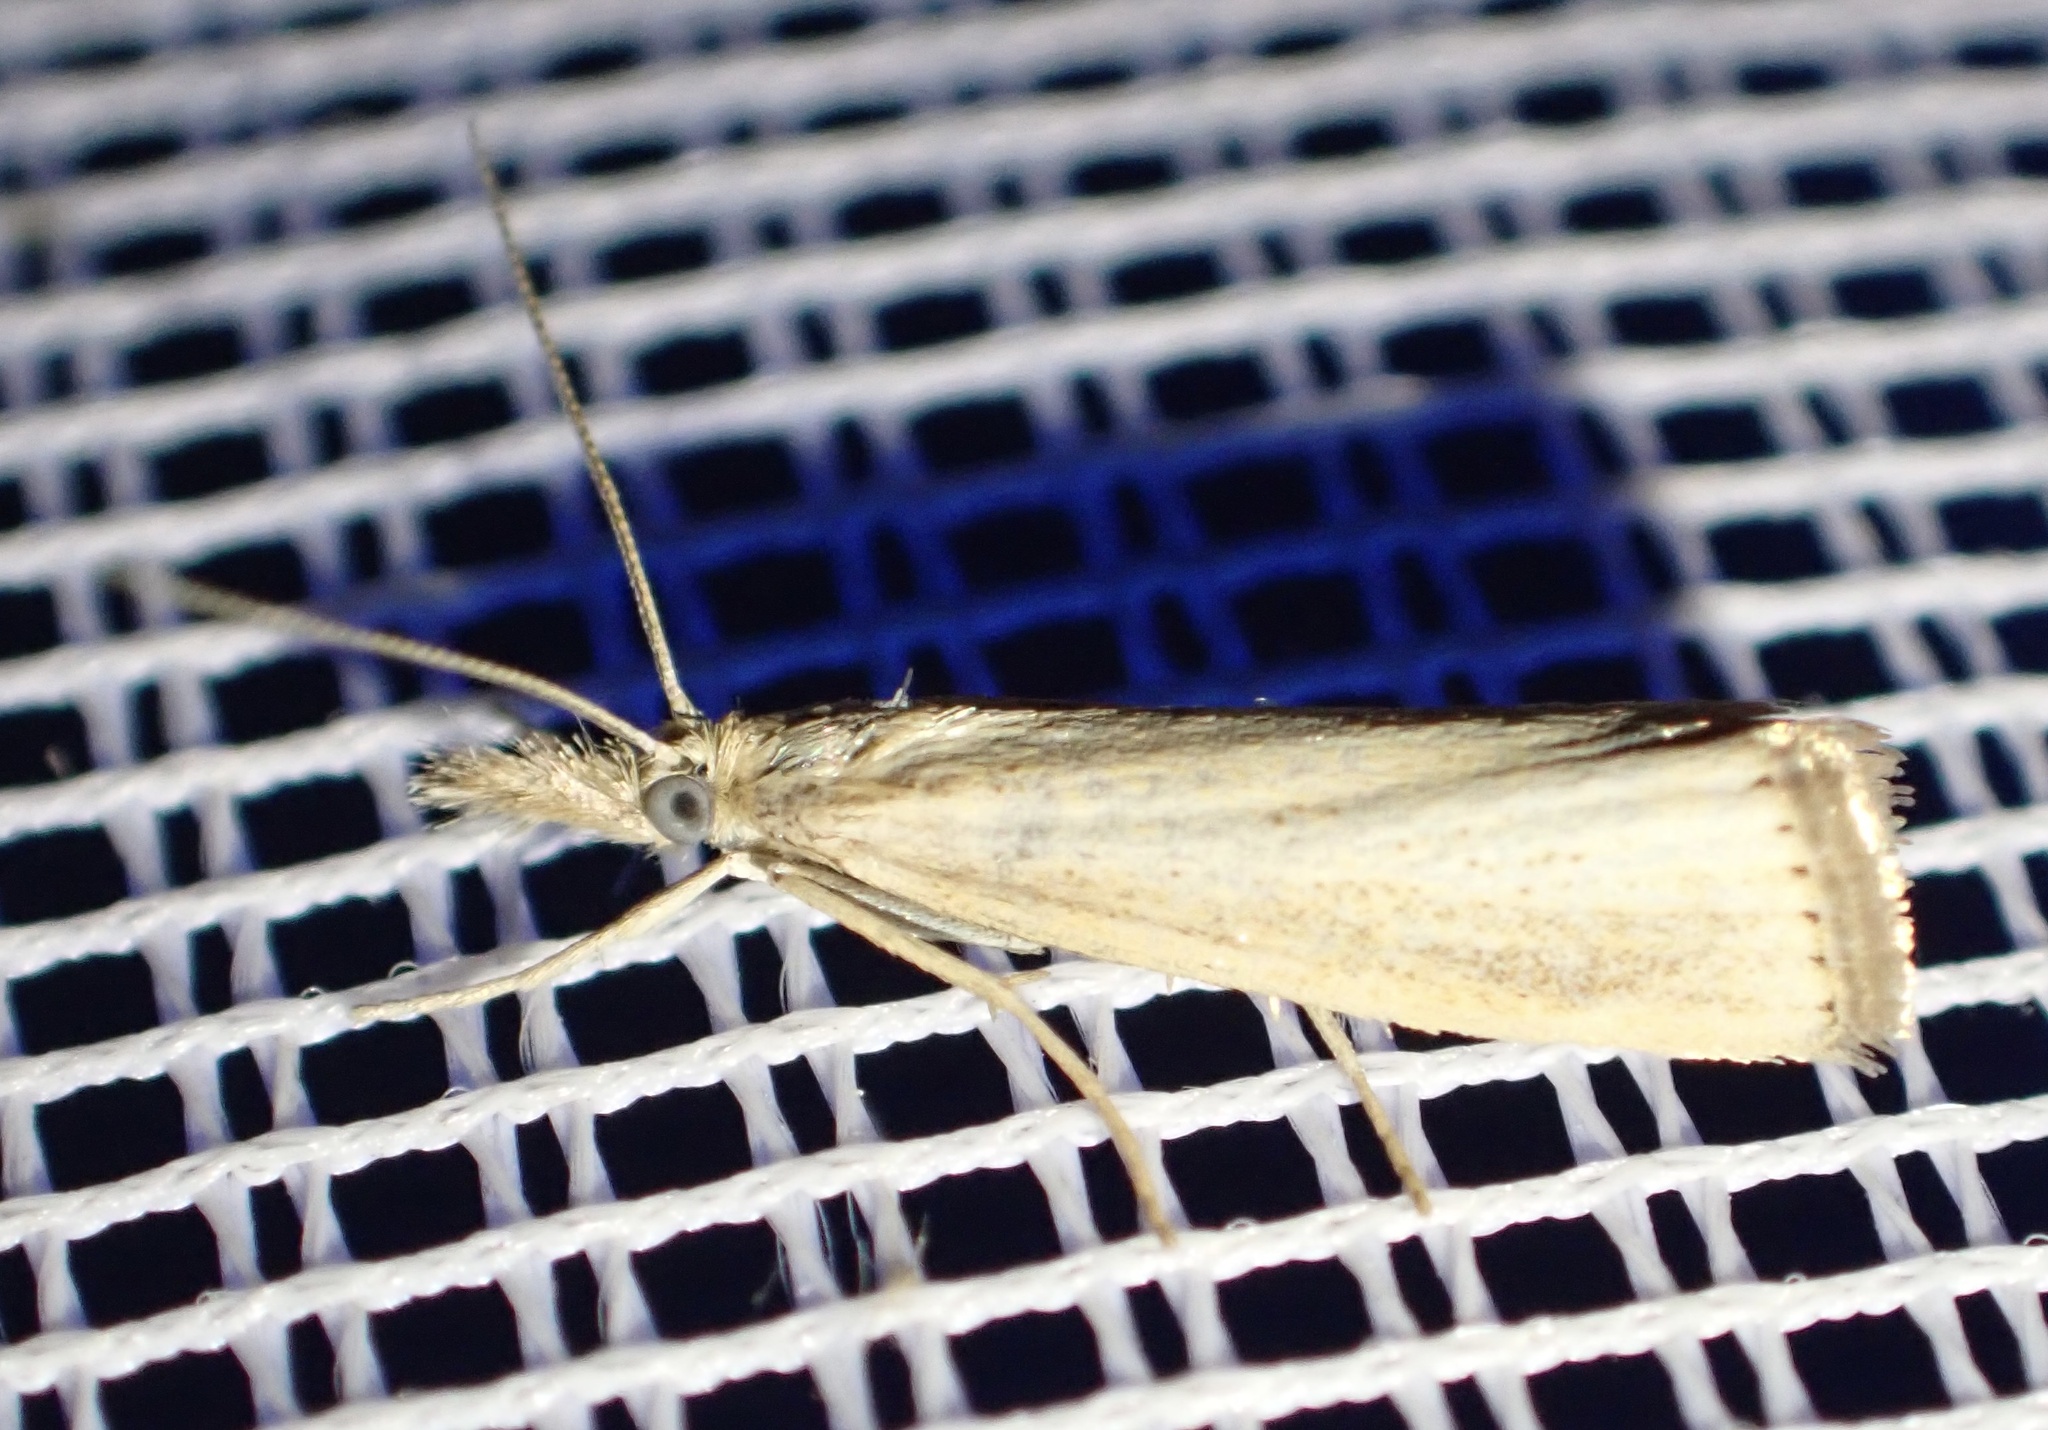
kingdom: Animalia
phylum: Arthropoda
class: Insecta
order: Lepidoptera
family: Crambidae
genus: Agriphila
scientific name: Agriphila straminella
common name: Straw grass-veneer
